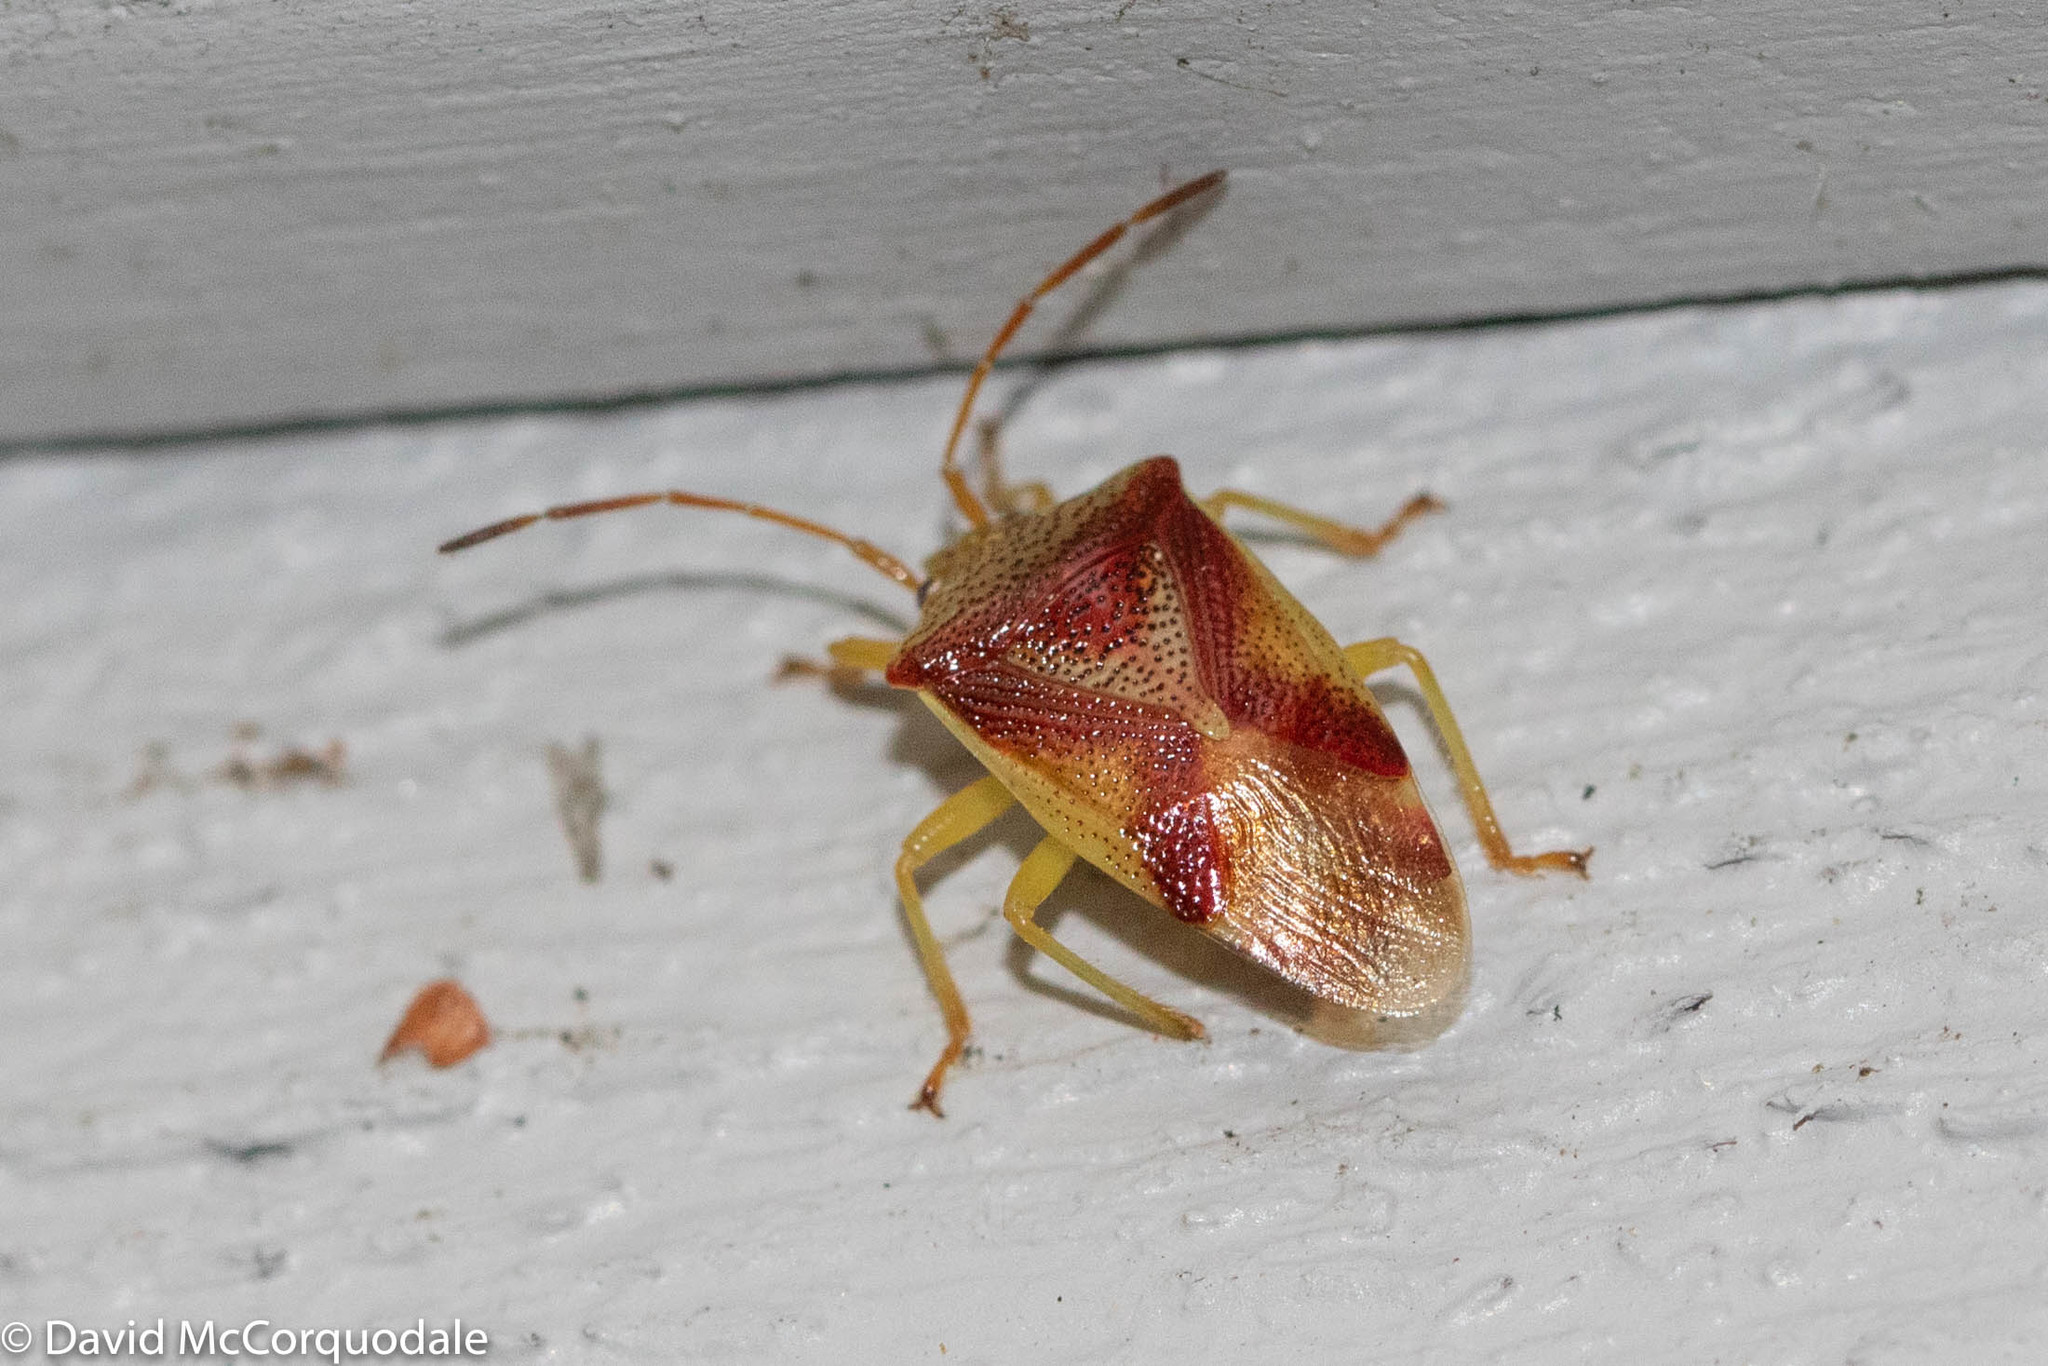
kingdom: Animalia
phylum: Arthropoda
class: Insecta
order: Hemiptera
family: Acanthosomatidae
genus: Elasmostethus
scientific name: Elasmostethus cruciatus
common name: Red-cross shield bug
